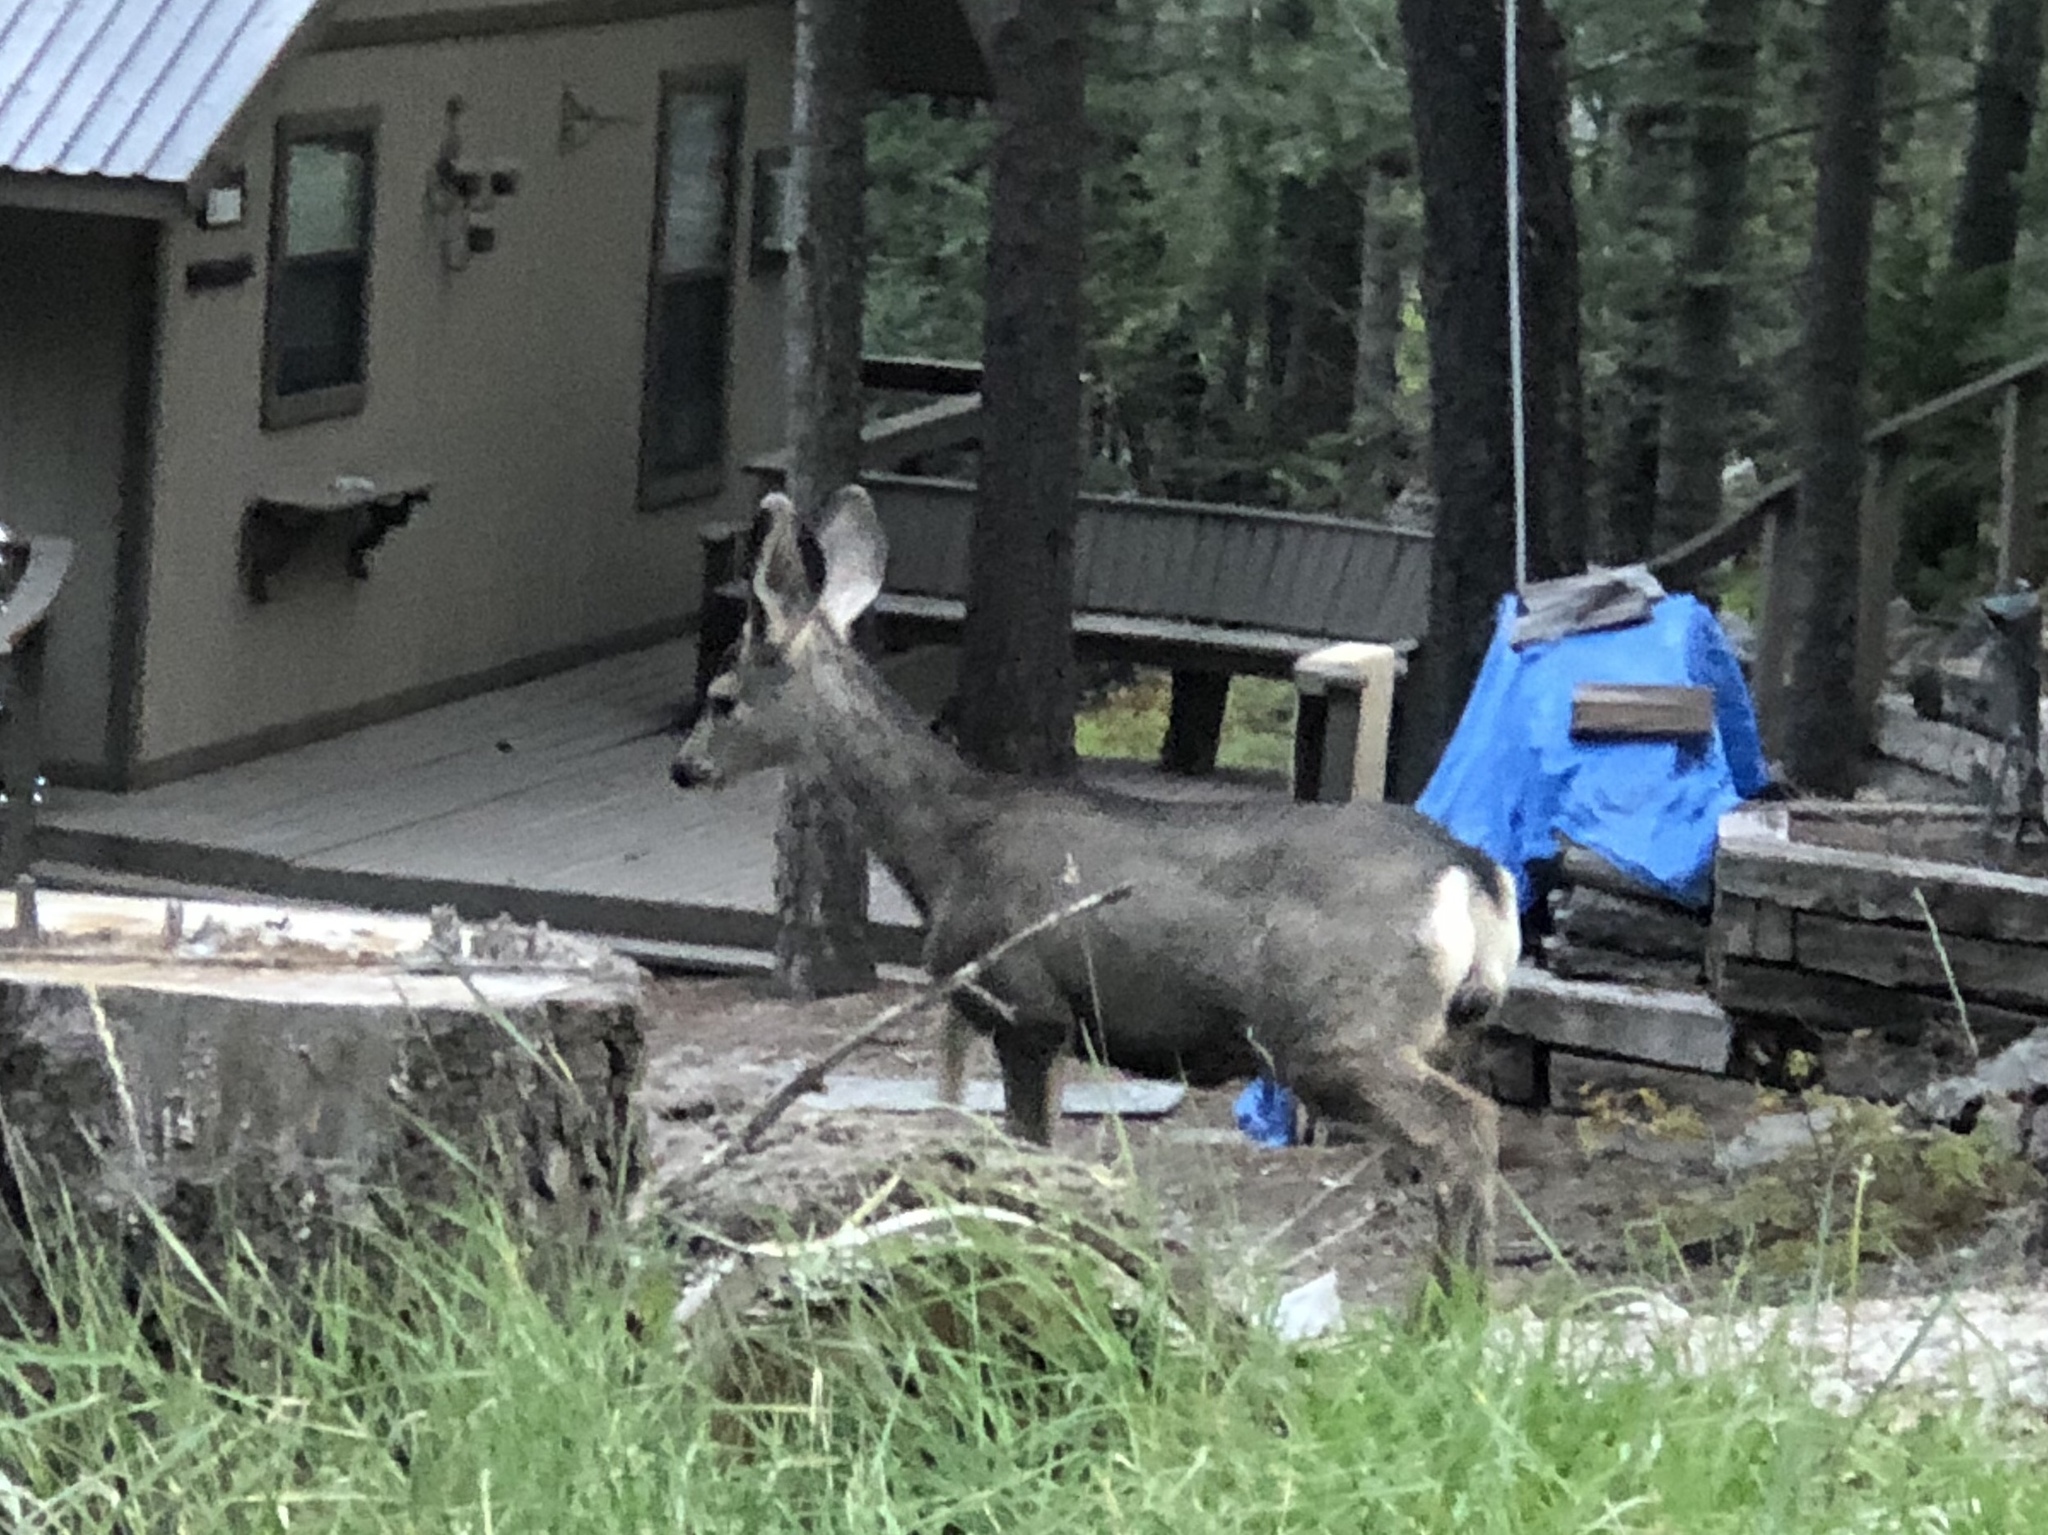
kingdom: Animalia
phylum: Chordata
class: Mammalia
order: Artiodactyla
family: Cervidae
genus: Odocoileus
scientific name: Odocoileus hemionus
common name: Mule deer
